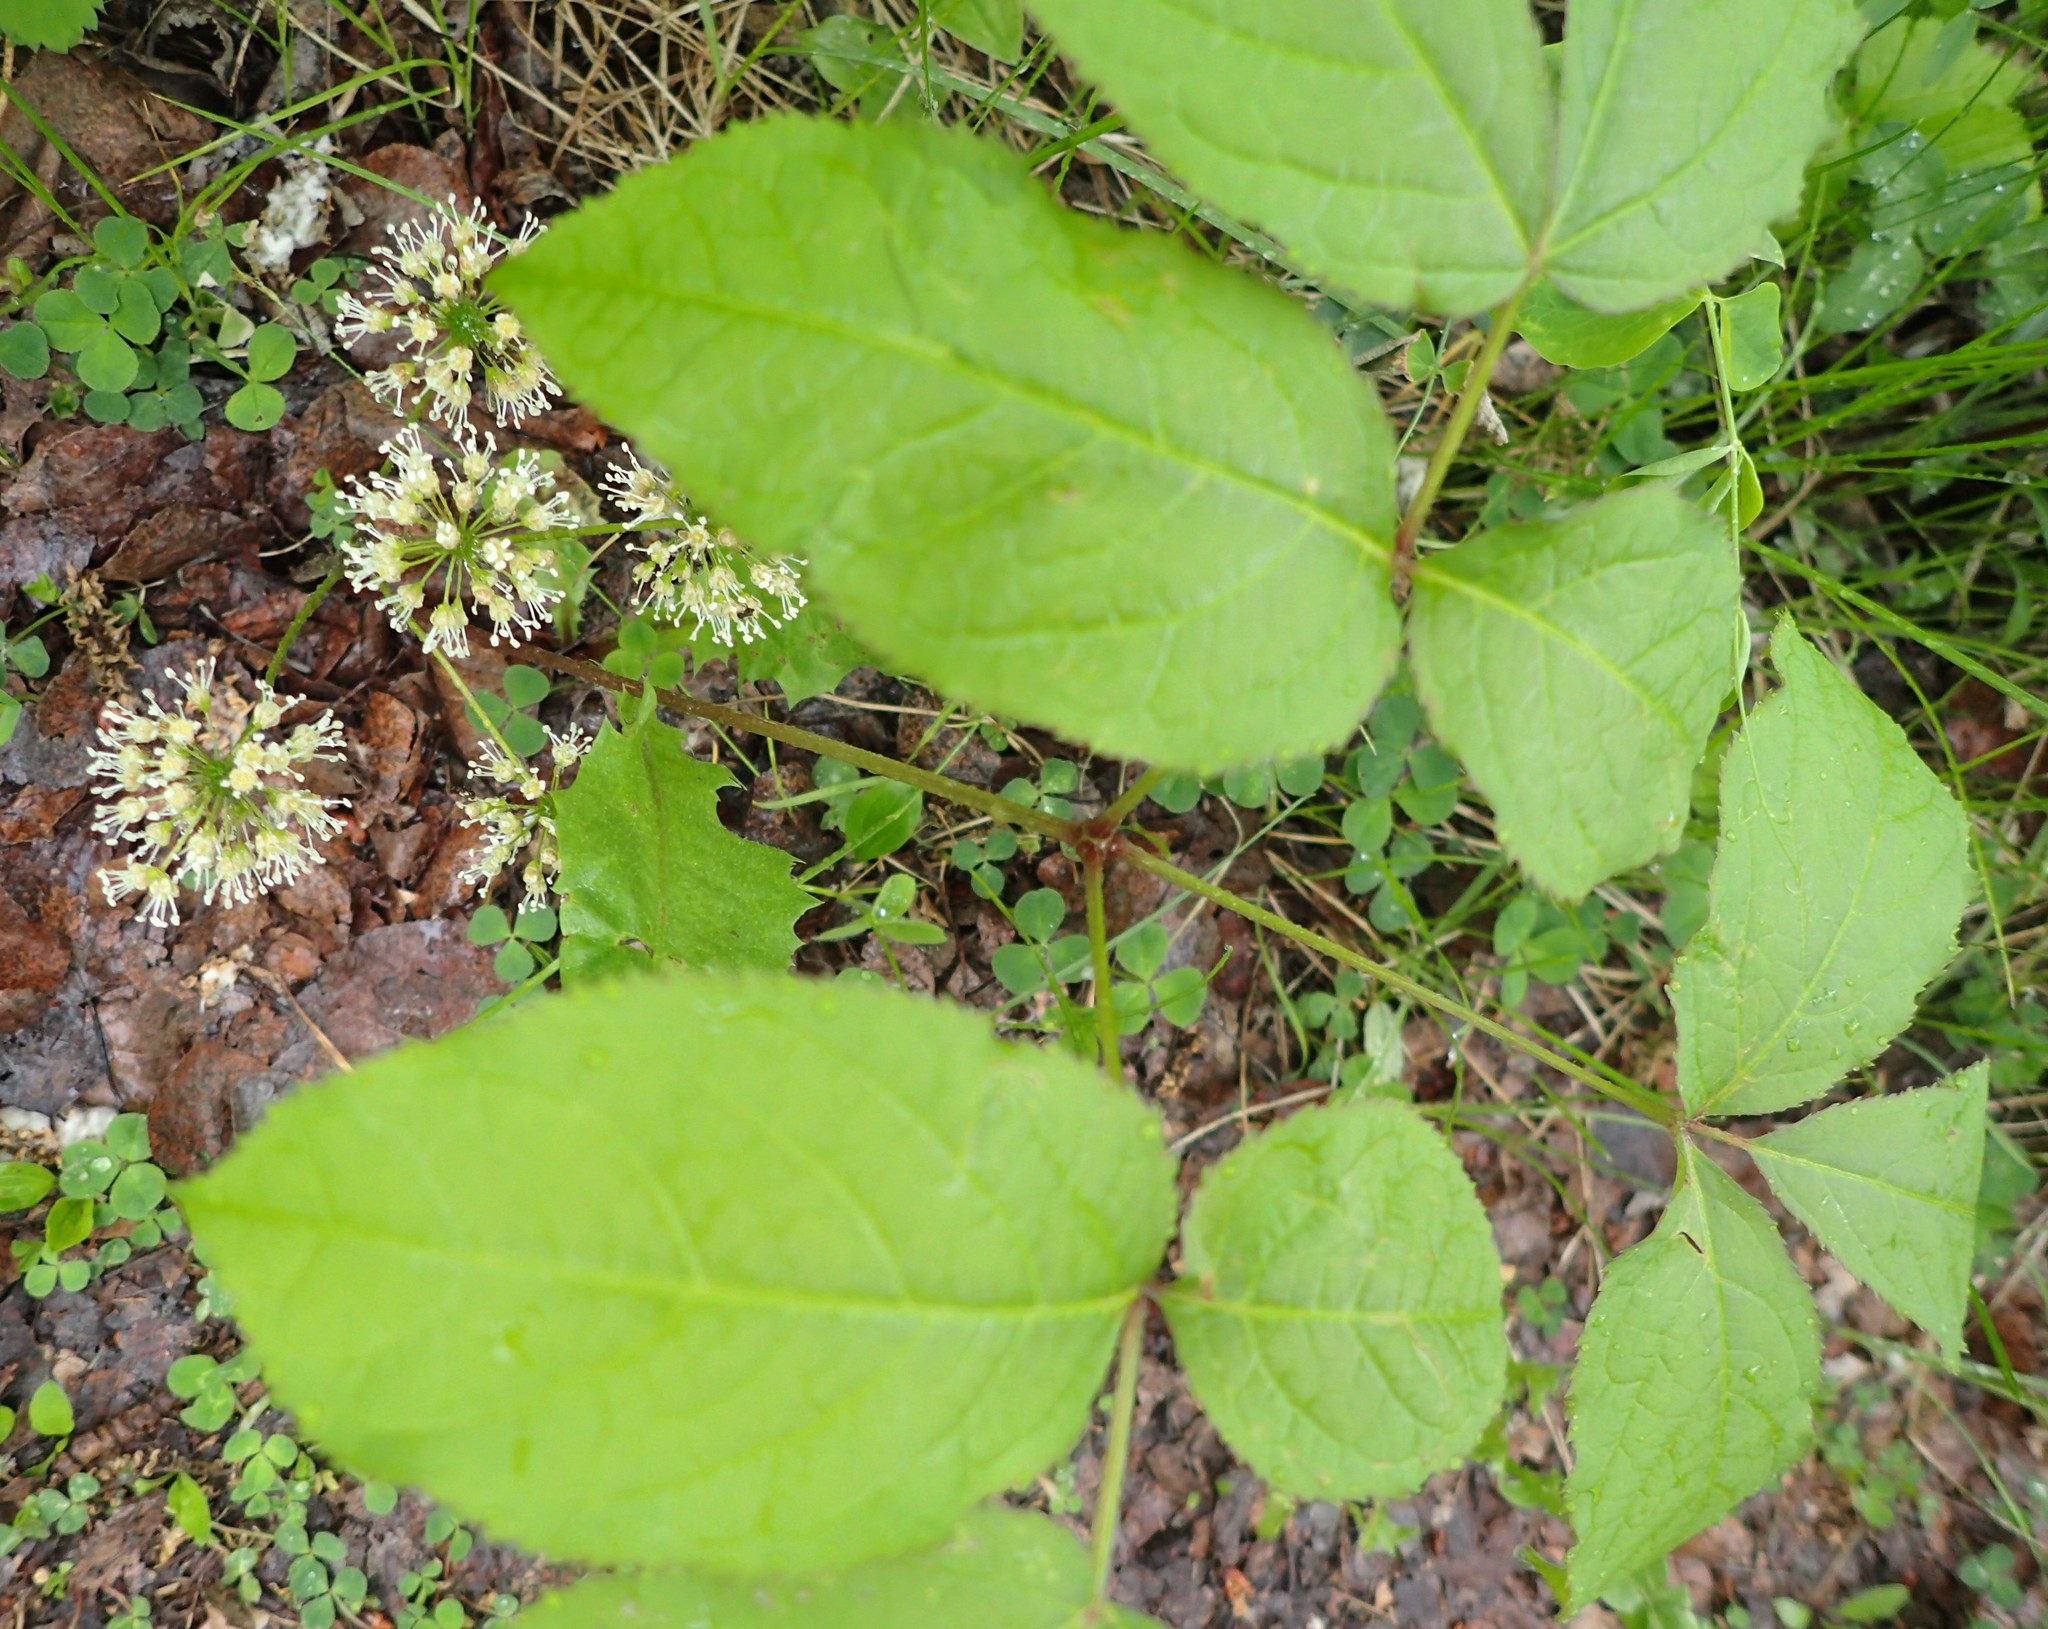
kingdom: Plantae
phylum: Tracheophyta
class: Magnoliopsida
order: Apiales
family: Araliaceae
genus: Aralia
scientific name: Aralia nudicaulis
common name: Wild sarsaparilla
